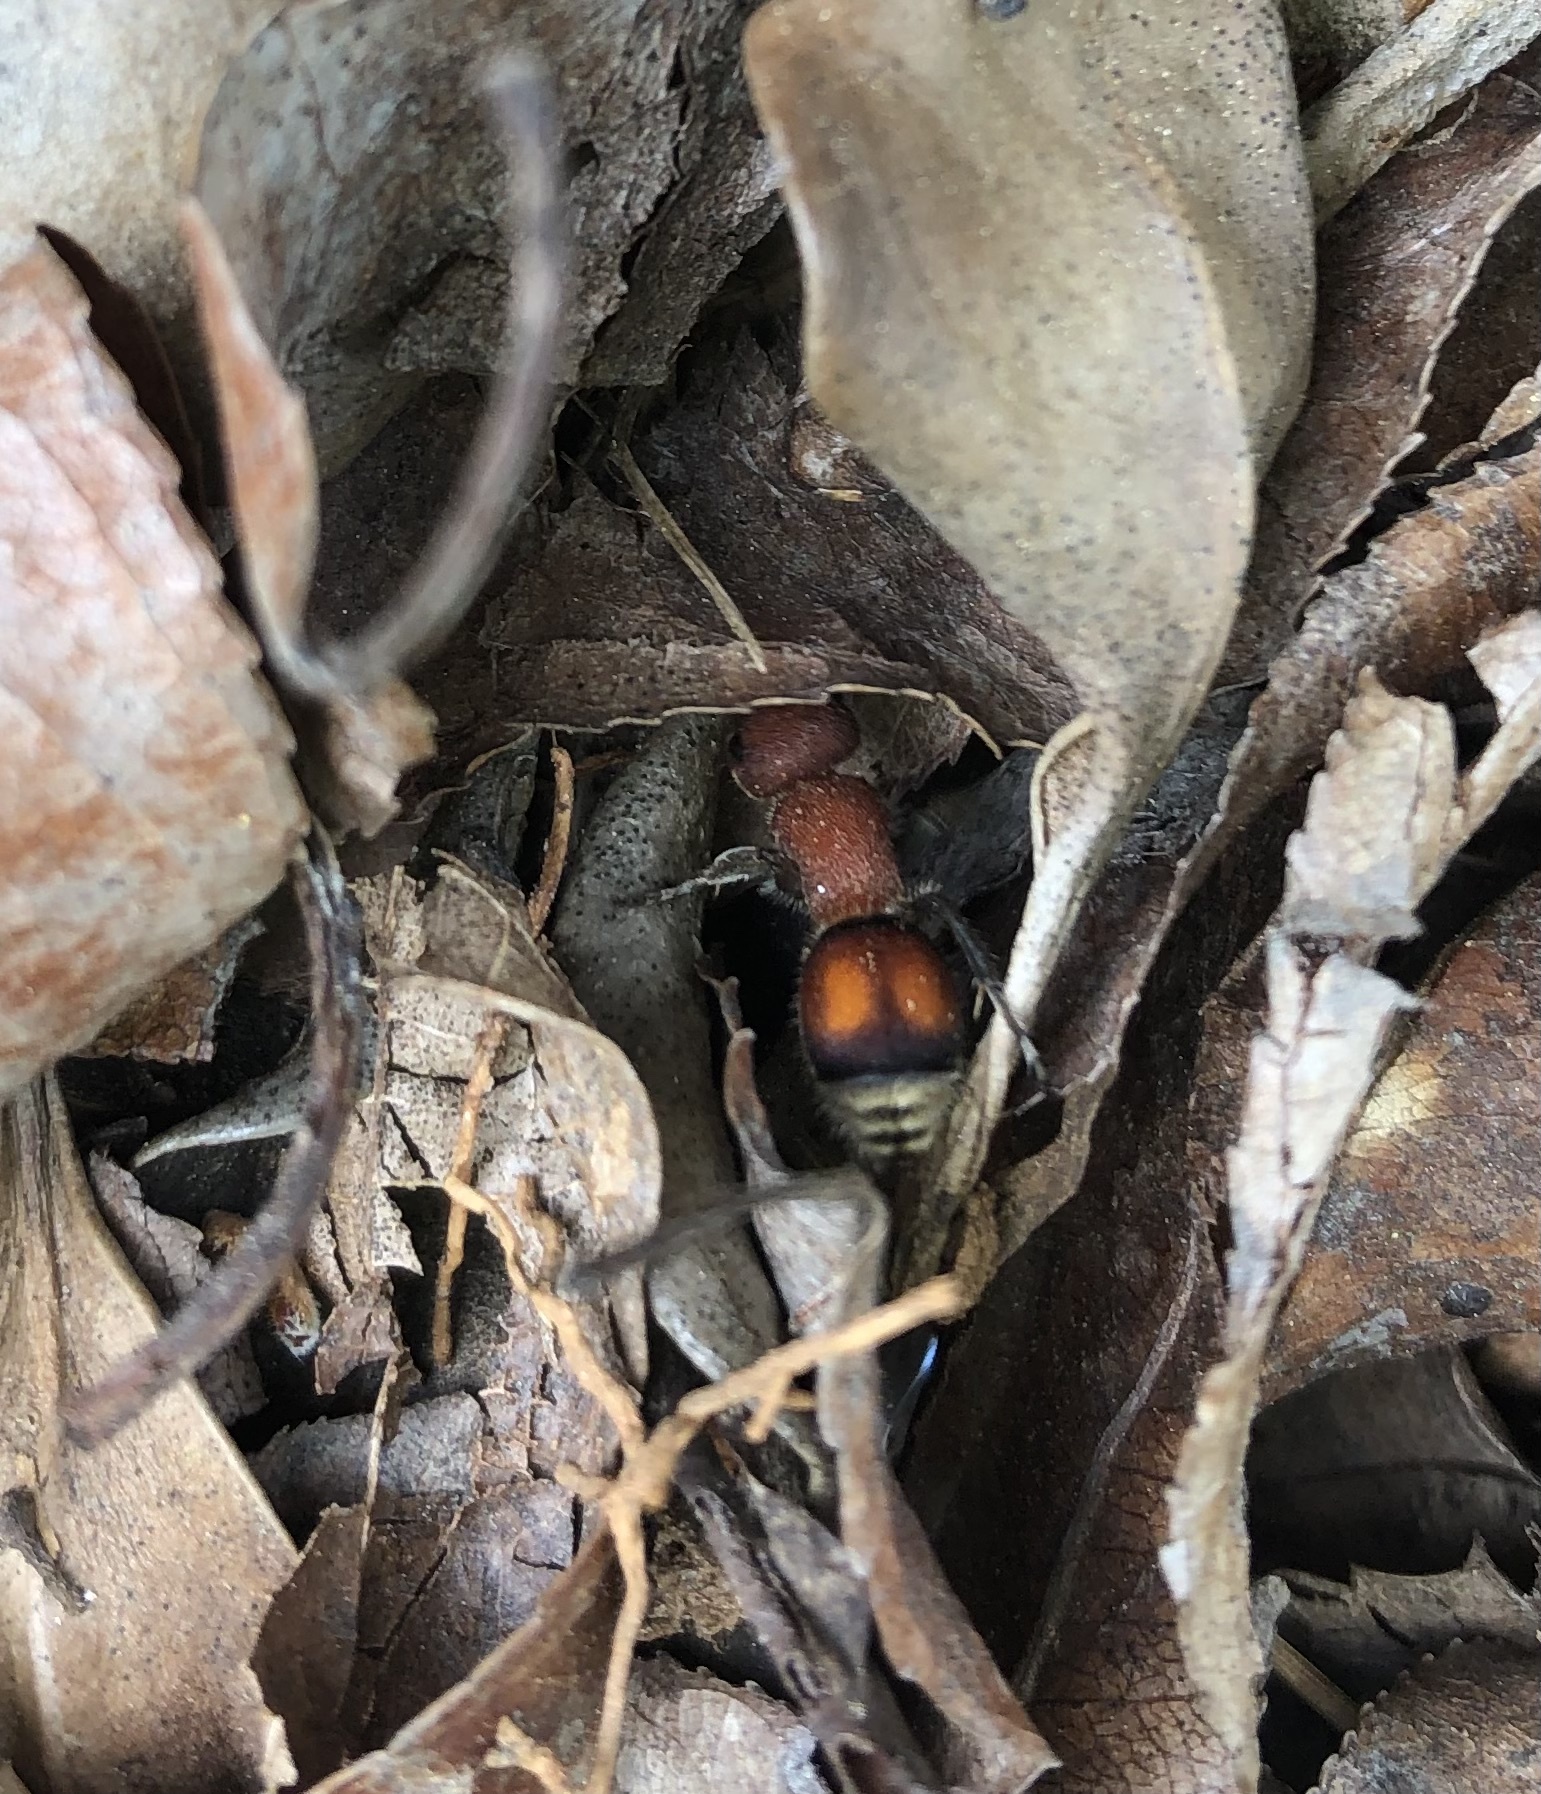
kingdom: Animalia
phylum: Arthropoda
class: Insecta
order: Hymenoptera
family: Mutillidae
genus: Pseudomethoca
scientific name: Pseudomethoca
